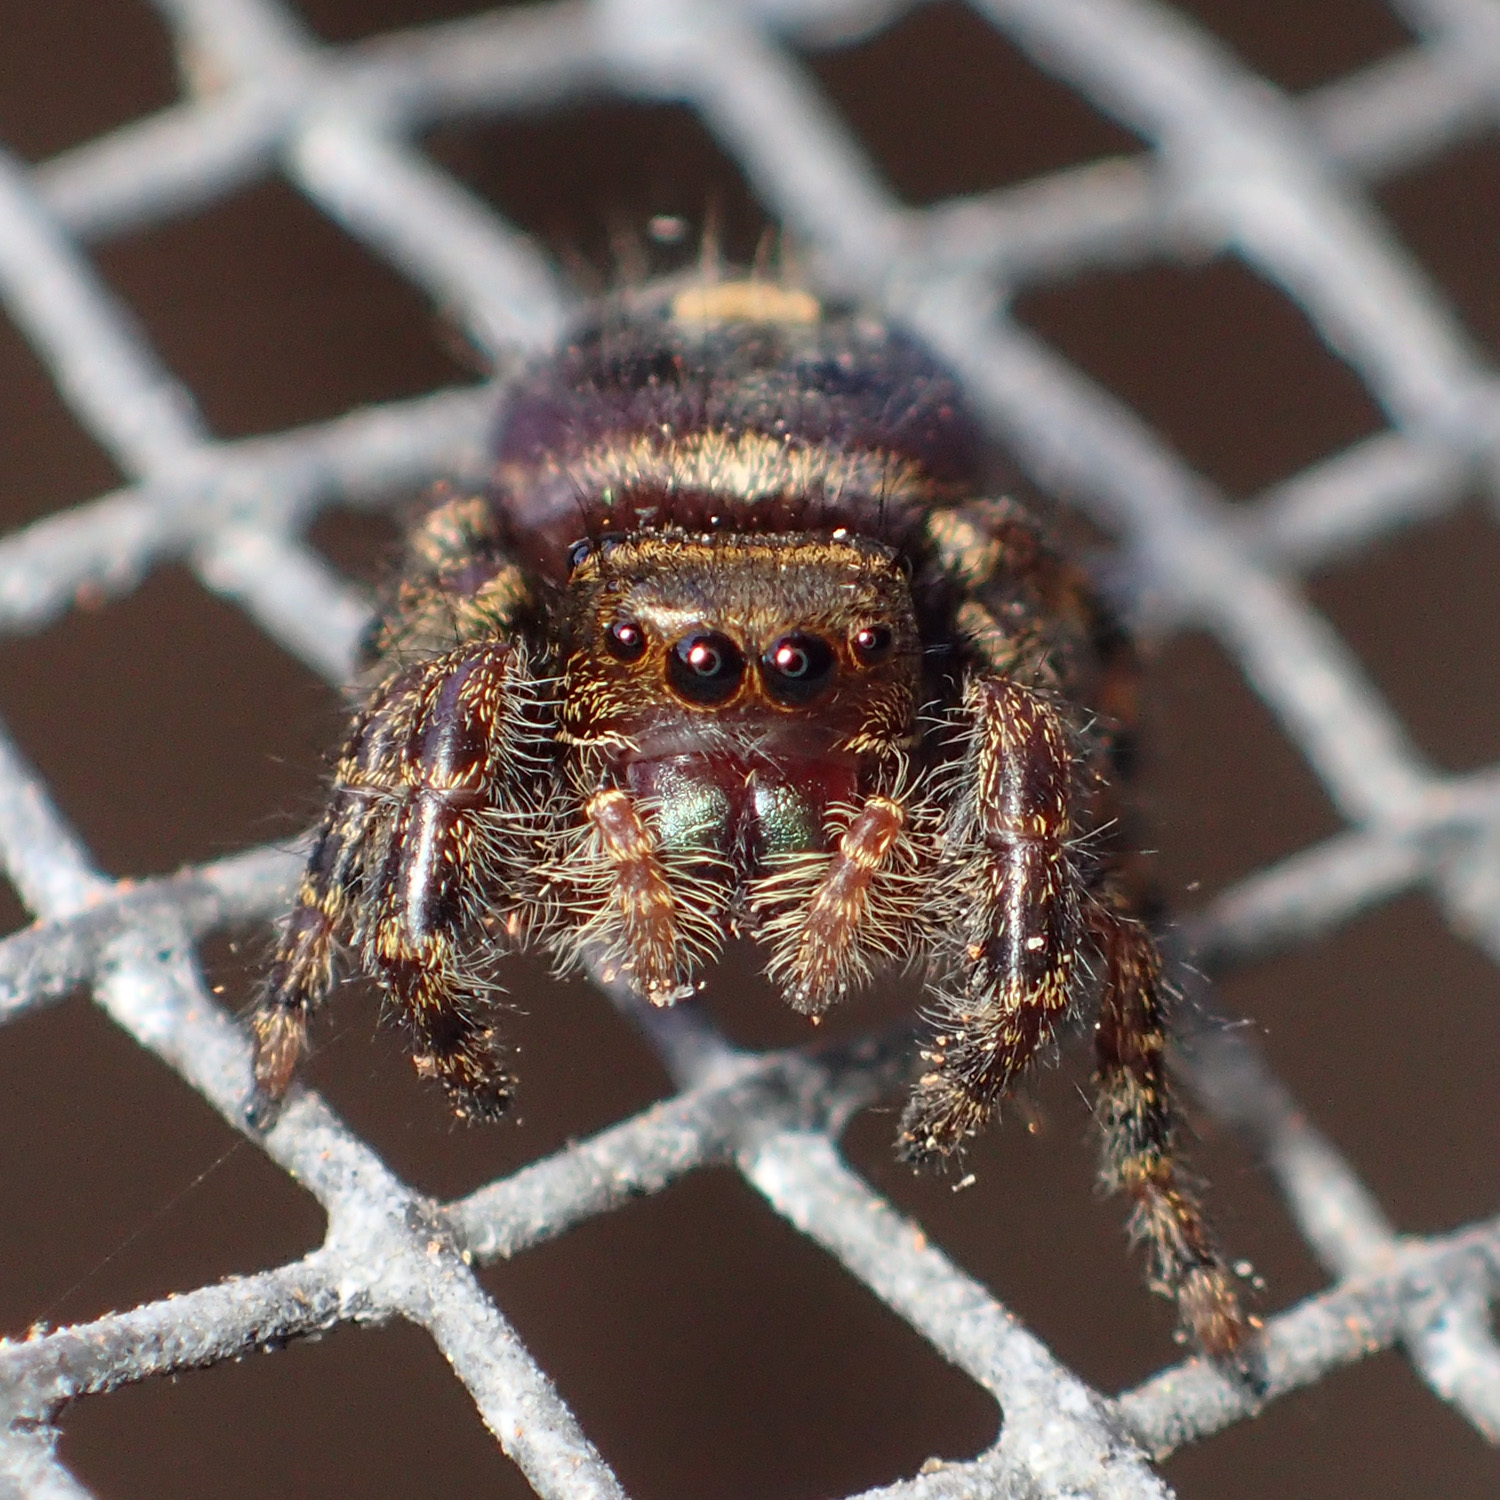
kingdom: Animalia
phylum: Arthropoda
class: Arachnida
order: Araneae
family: Salticidae
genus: Phidippus
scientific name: Phidippus audax
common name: Bold jumper
